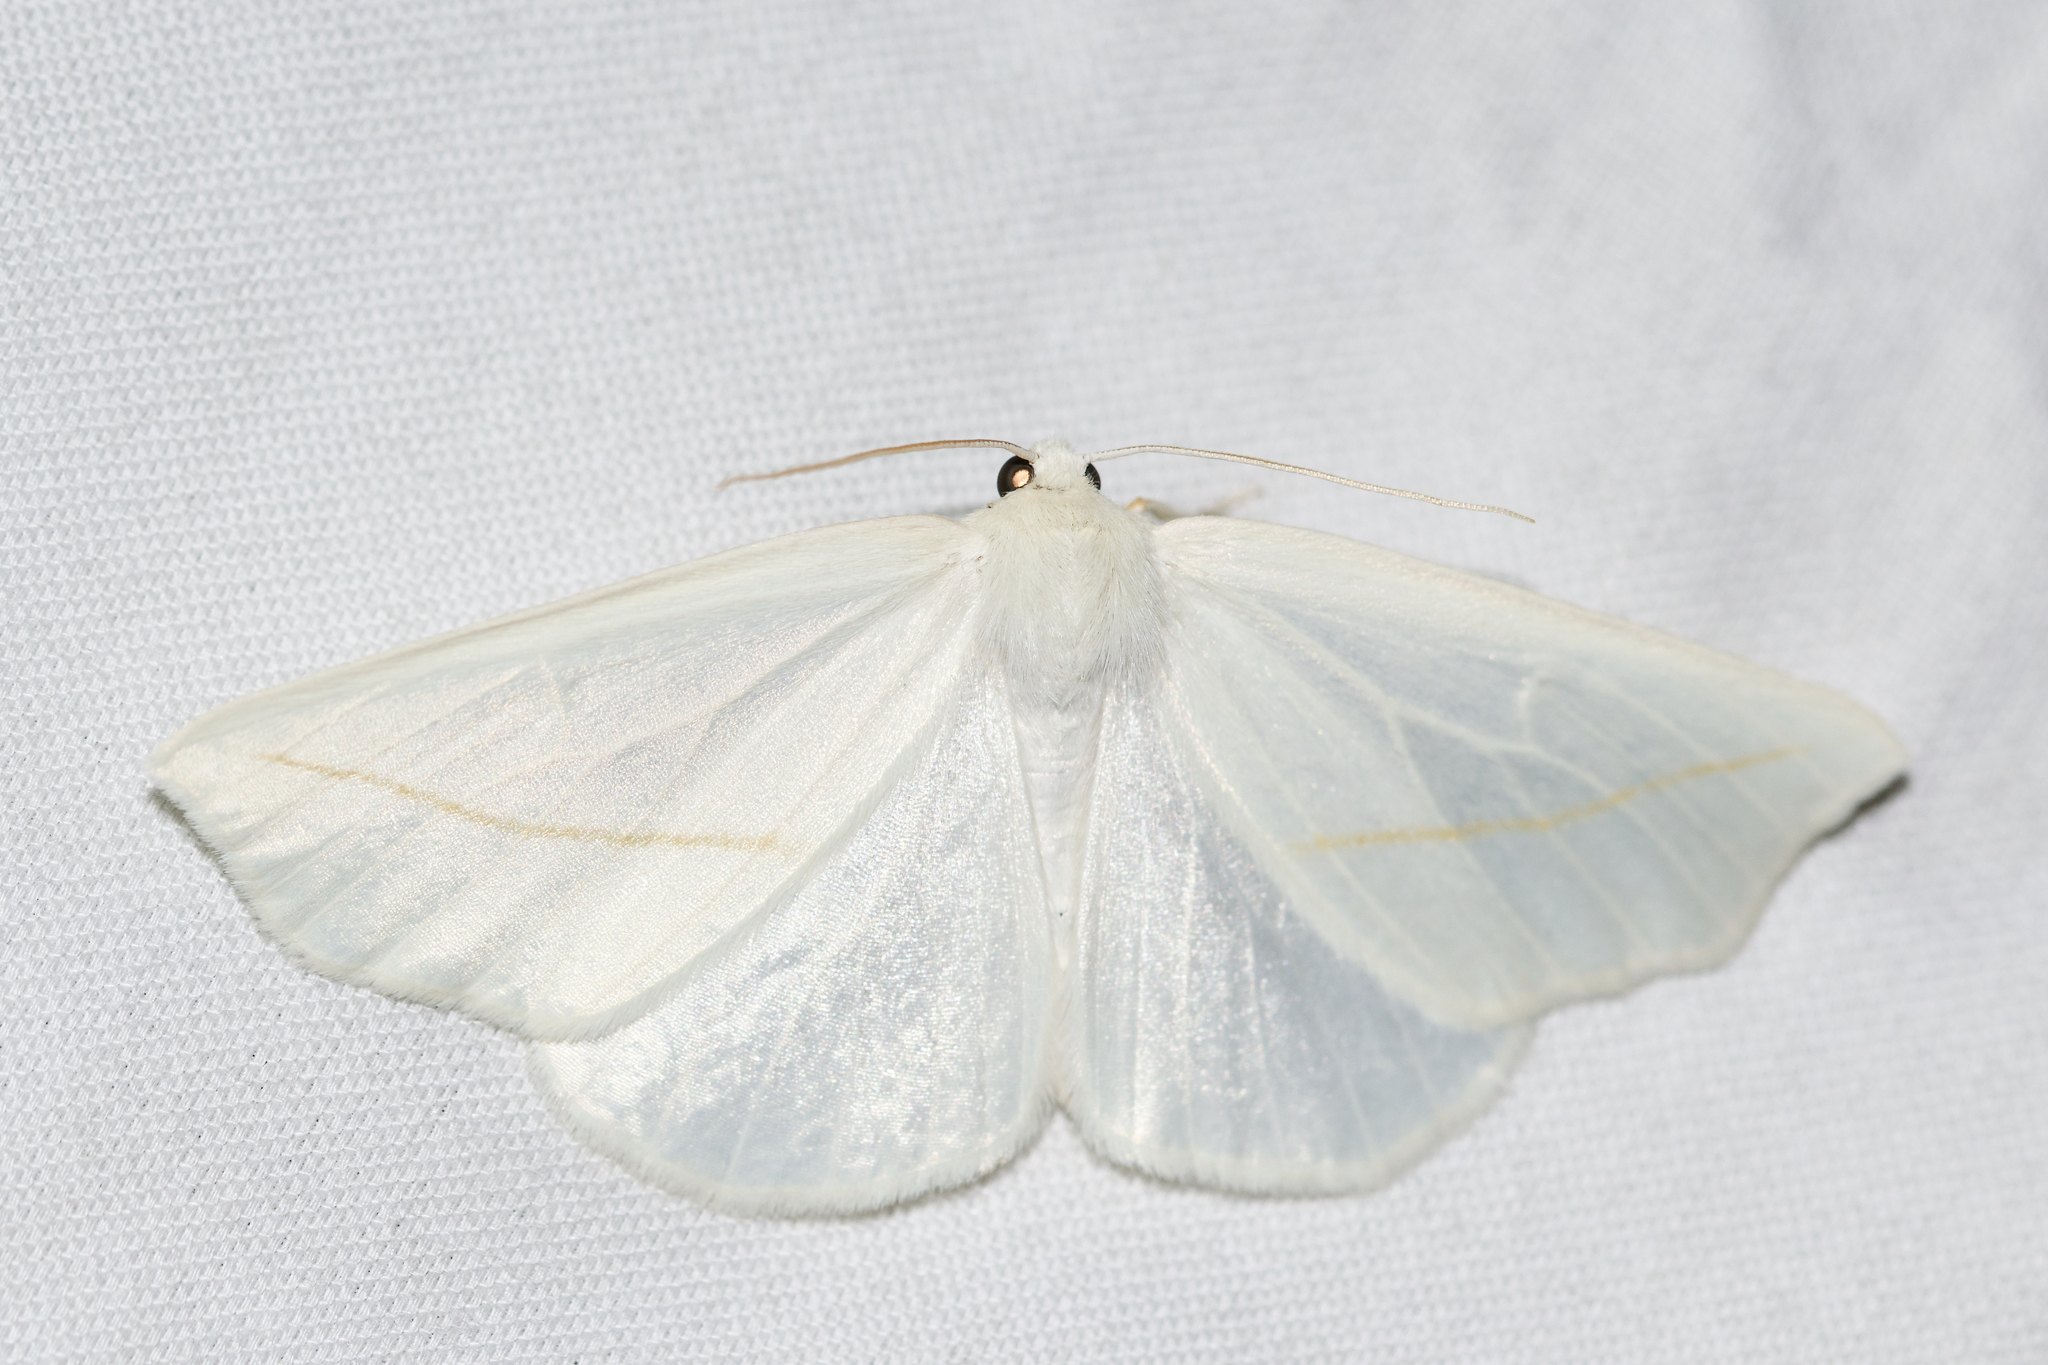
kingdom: Animalia
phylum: Arthropoda
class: Insecta
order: Lepidoptera
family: Geometridae
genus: Tetracis
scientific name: Tetracis cachexiata
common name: White slant-line
